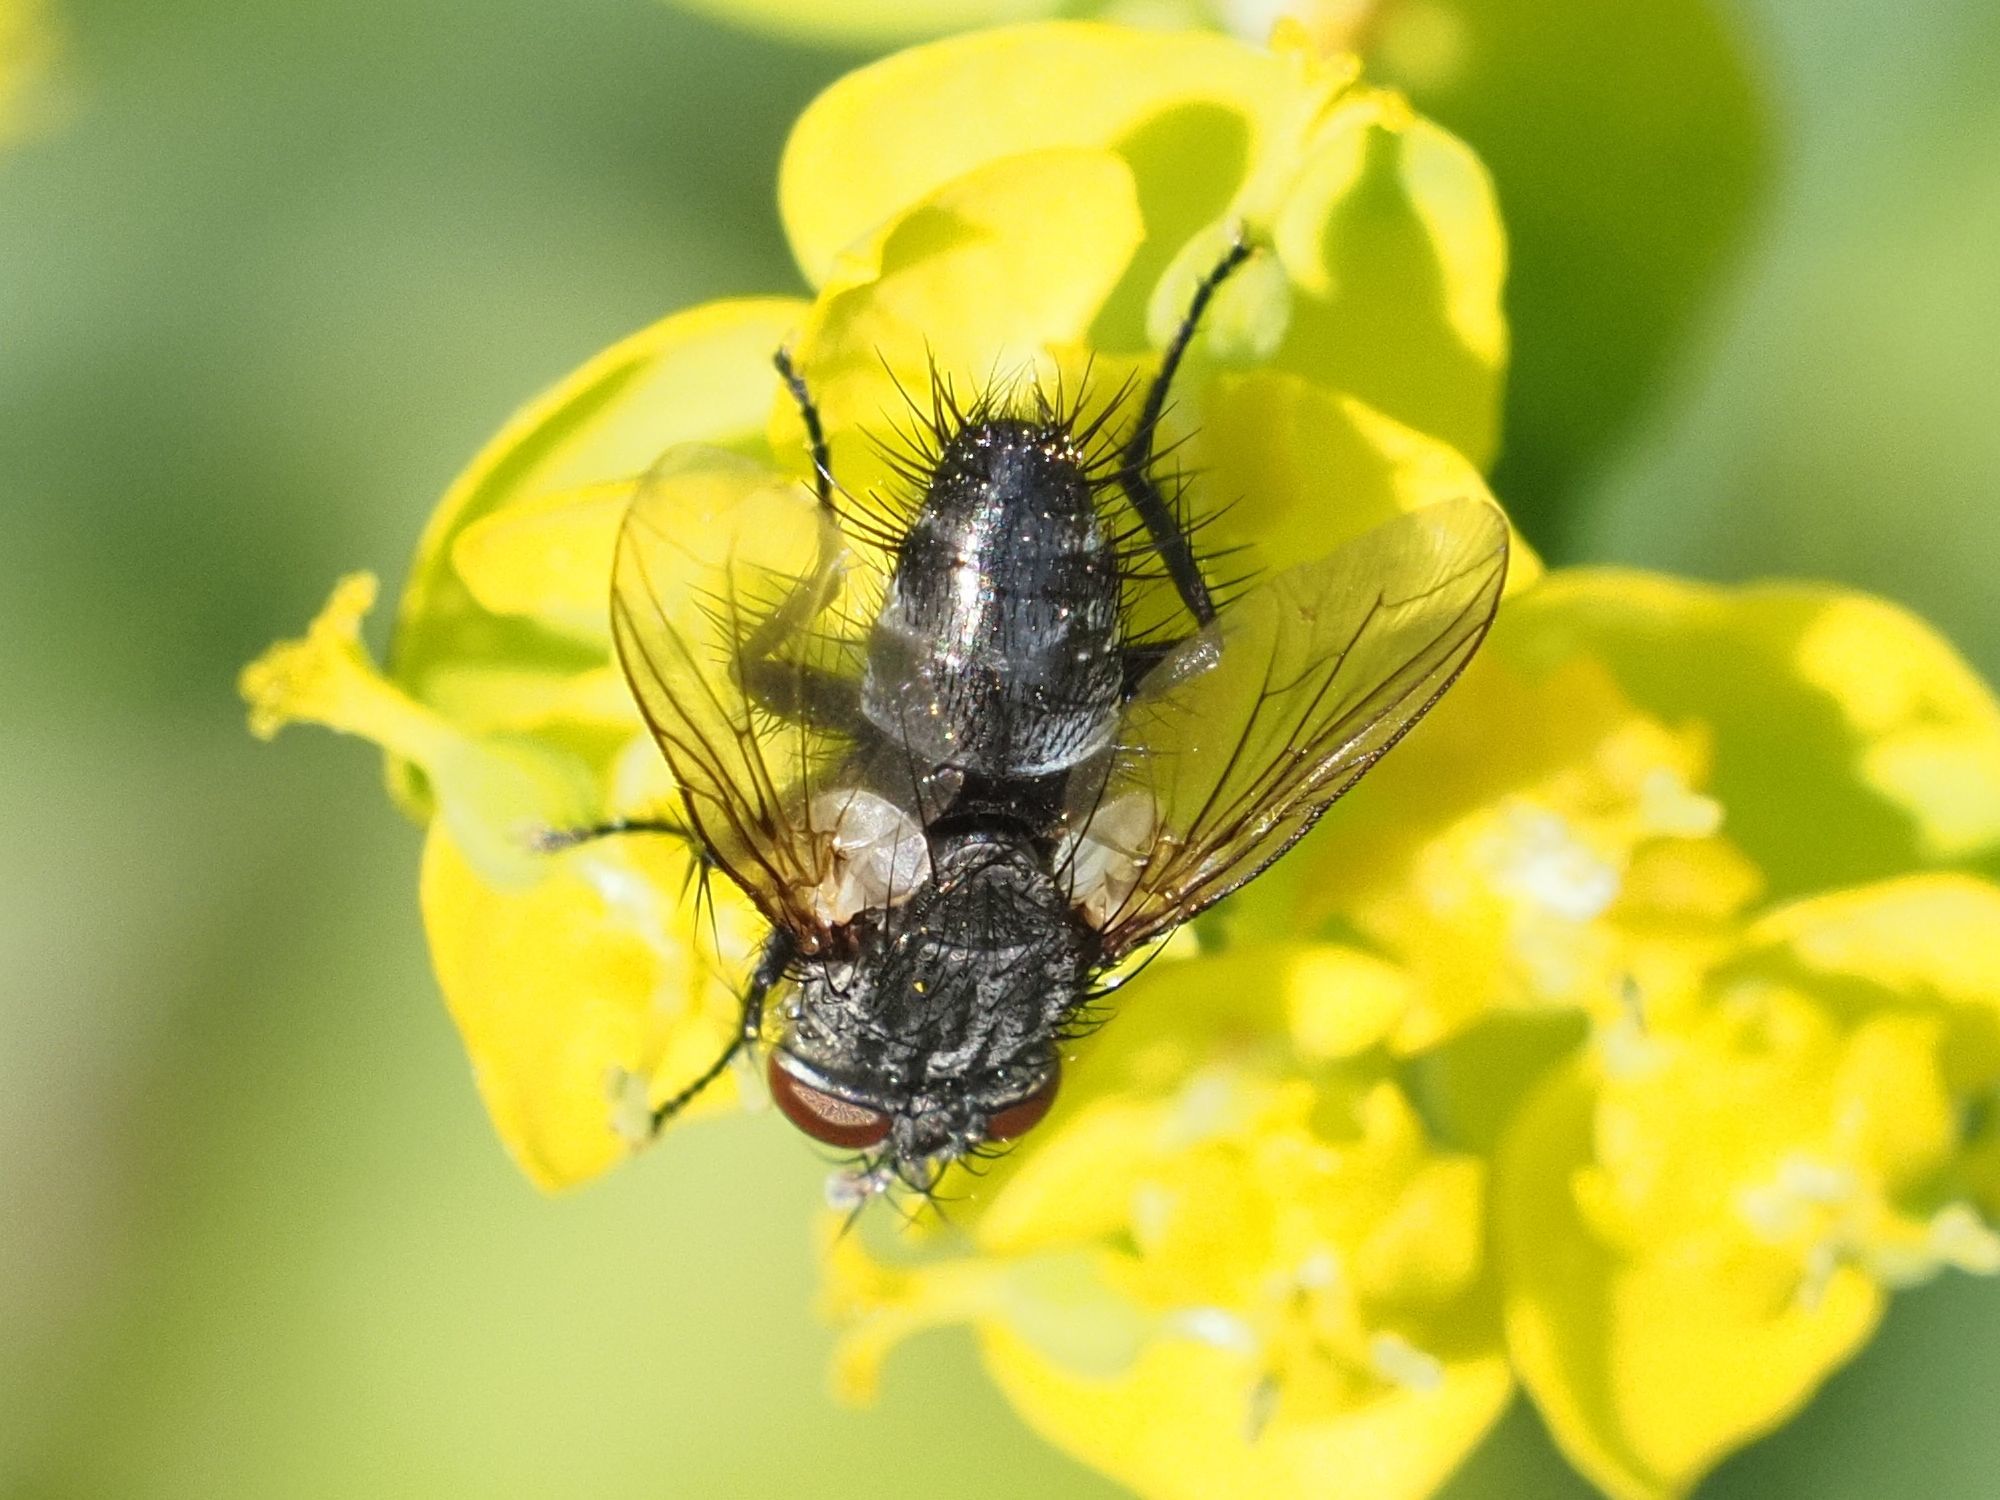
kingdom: Animalia
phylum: Arthropoda
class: Insecta
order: Diptera
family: Tachinidae
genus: Voria
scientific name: Voria ruralis
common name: Parasitic fly
